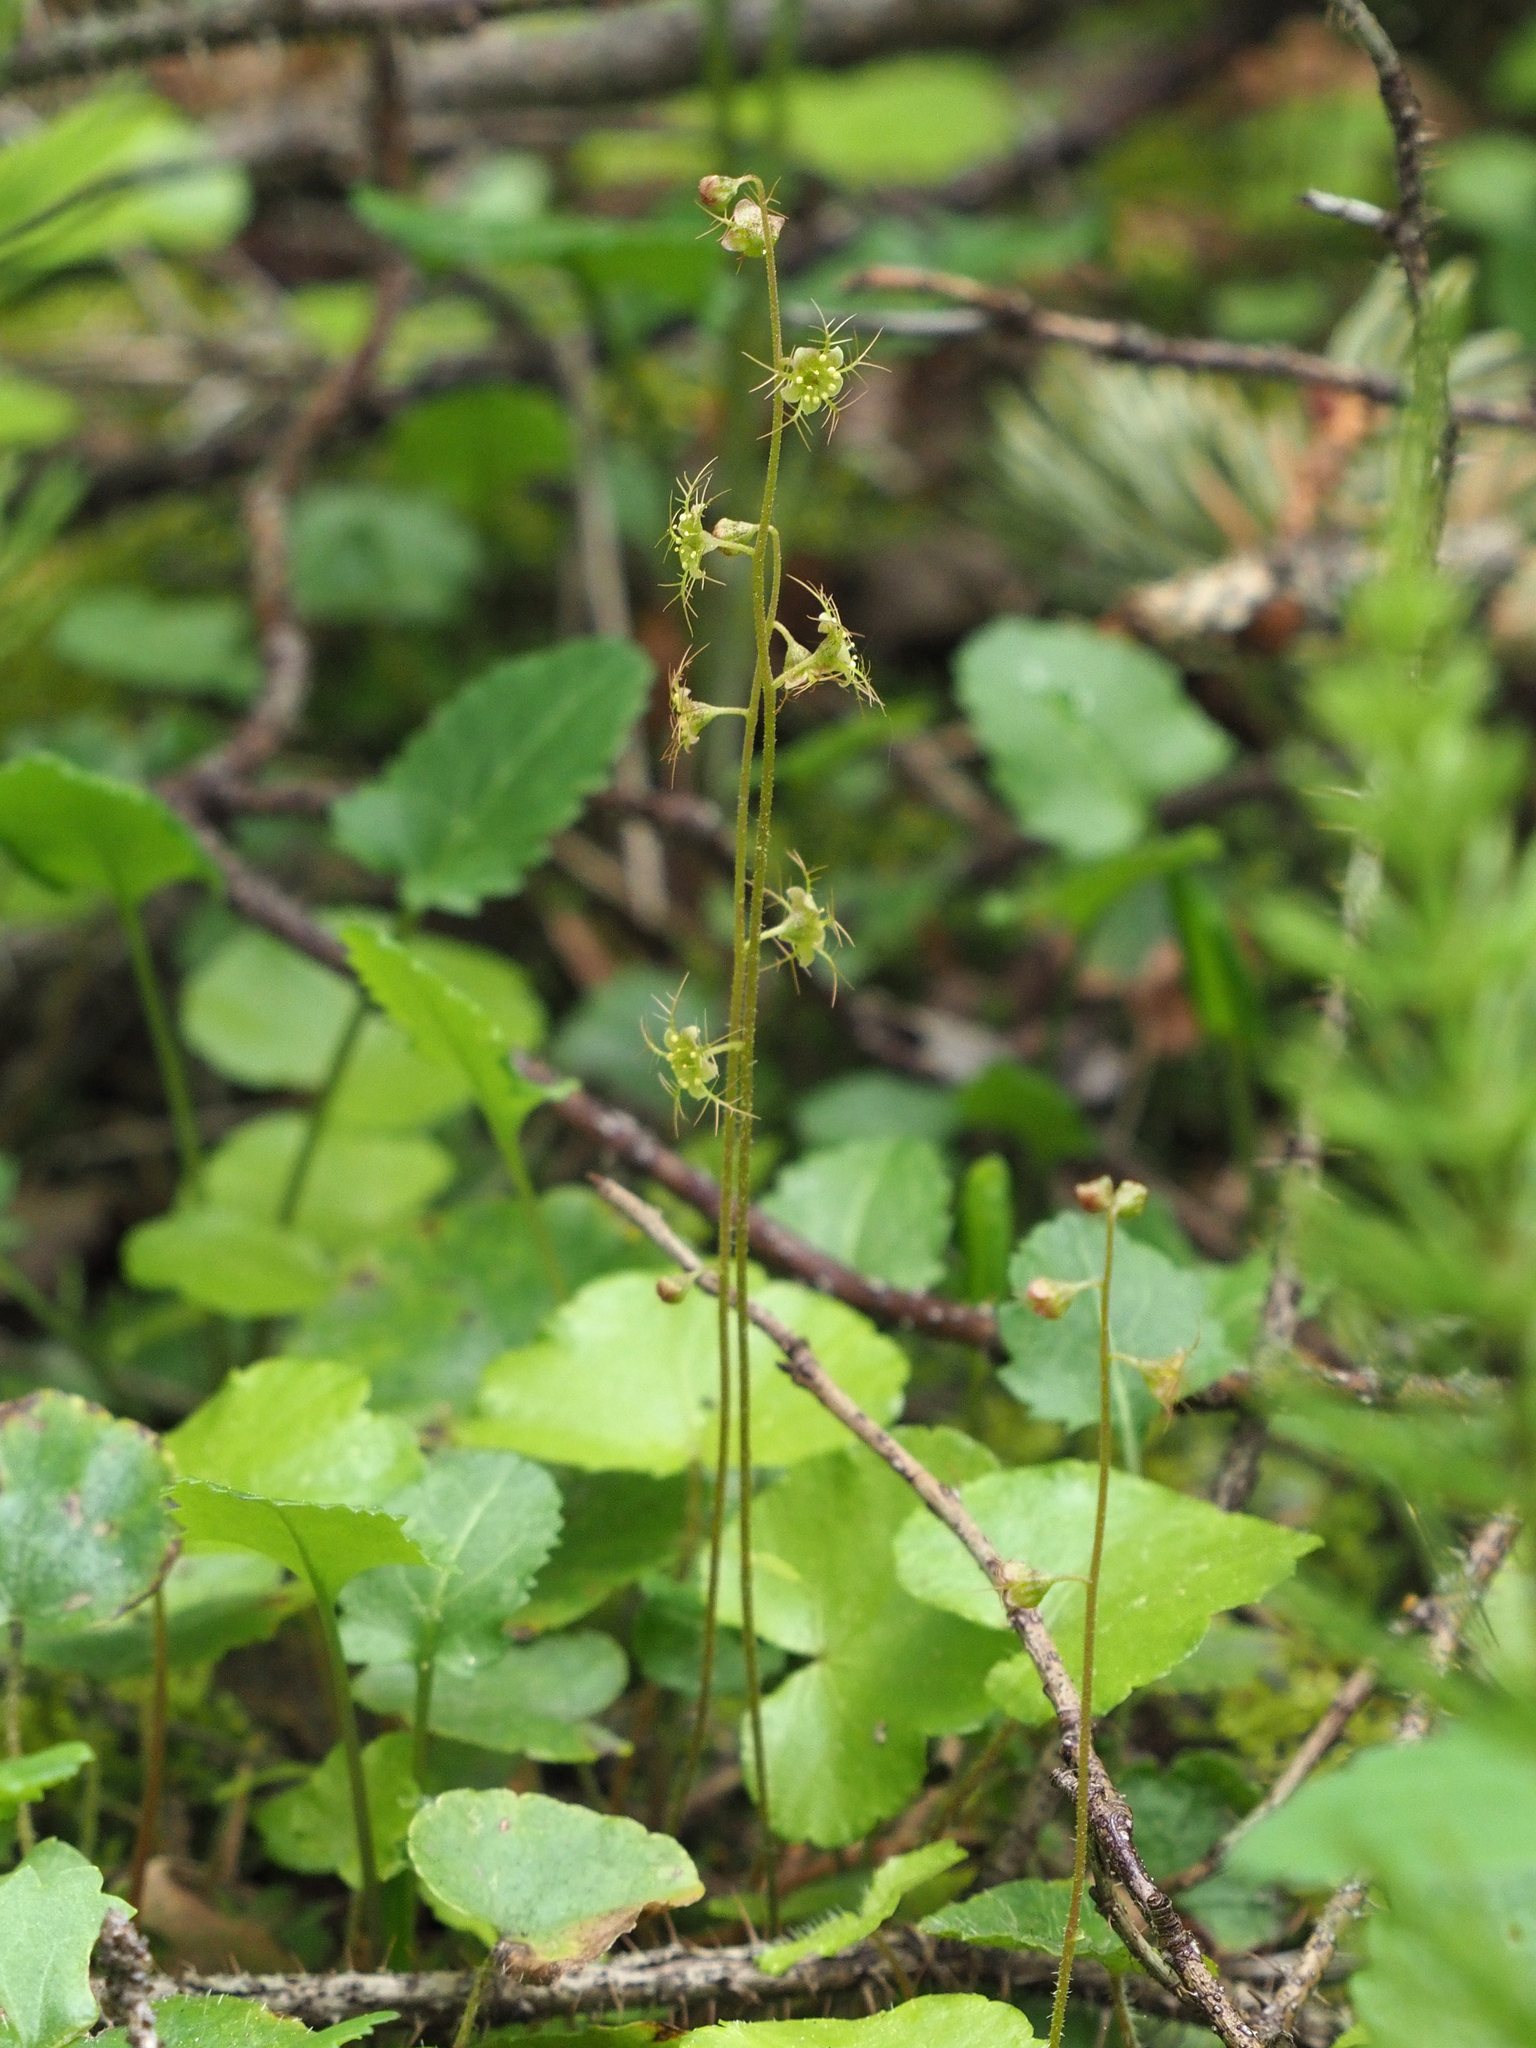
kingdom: Plantae
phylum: Tracheophyta
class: Magnoliopsida
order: Saxifragales
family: Saxifragaceae
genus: Mitella
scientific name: Mitella nuda
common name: Bare-stemmed bishop's-cap
